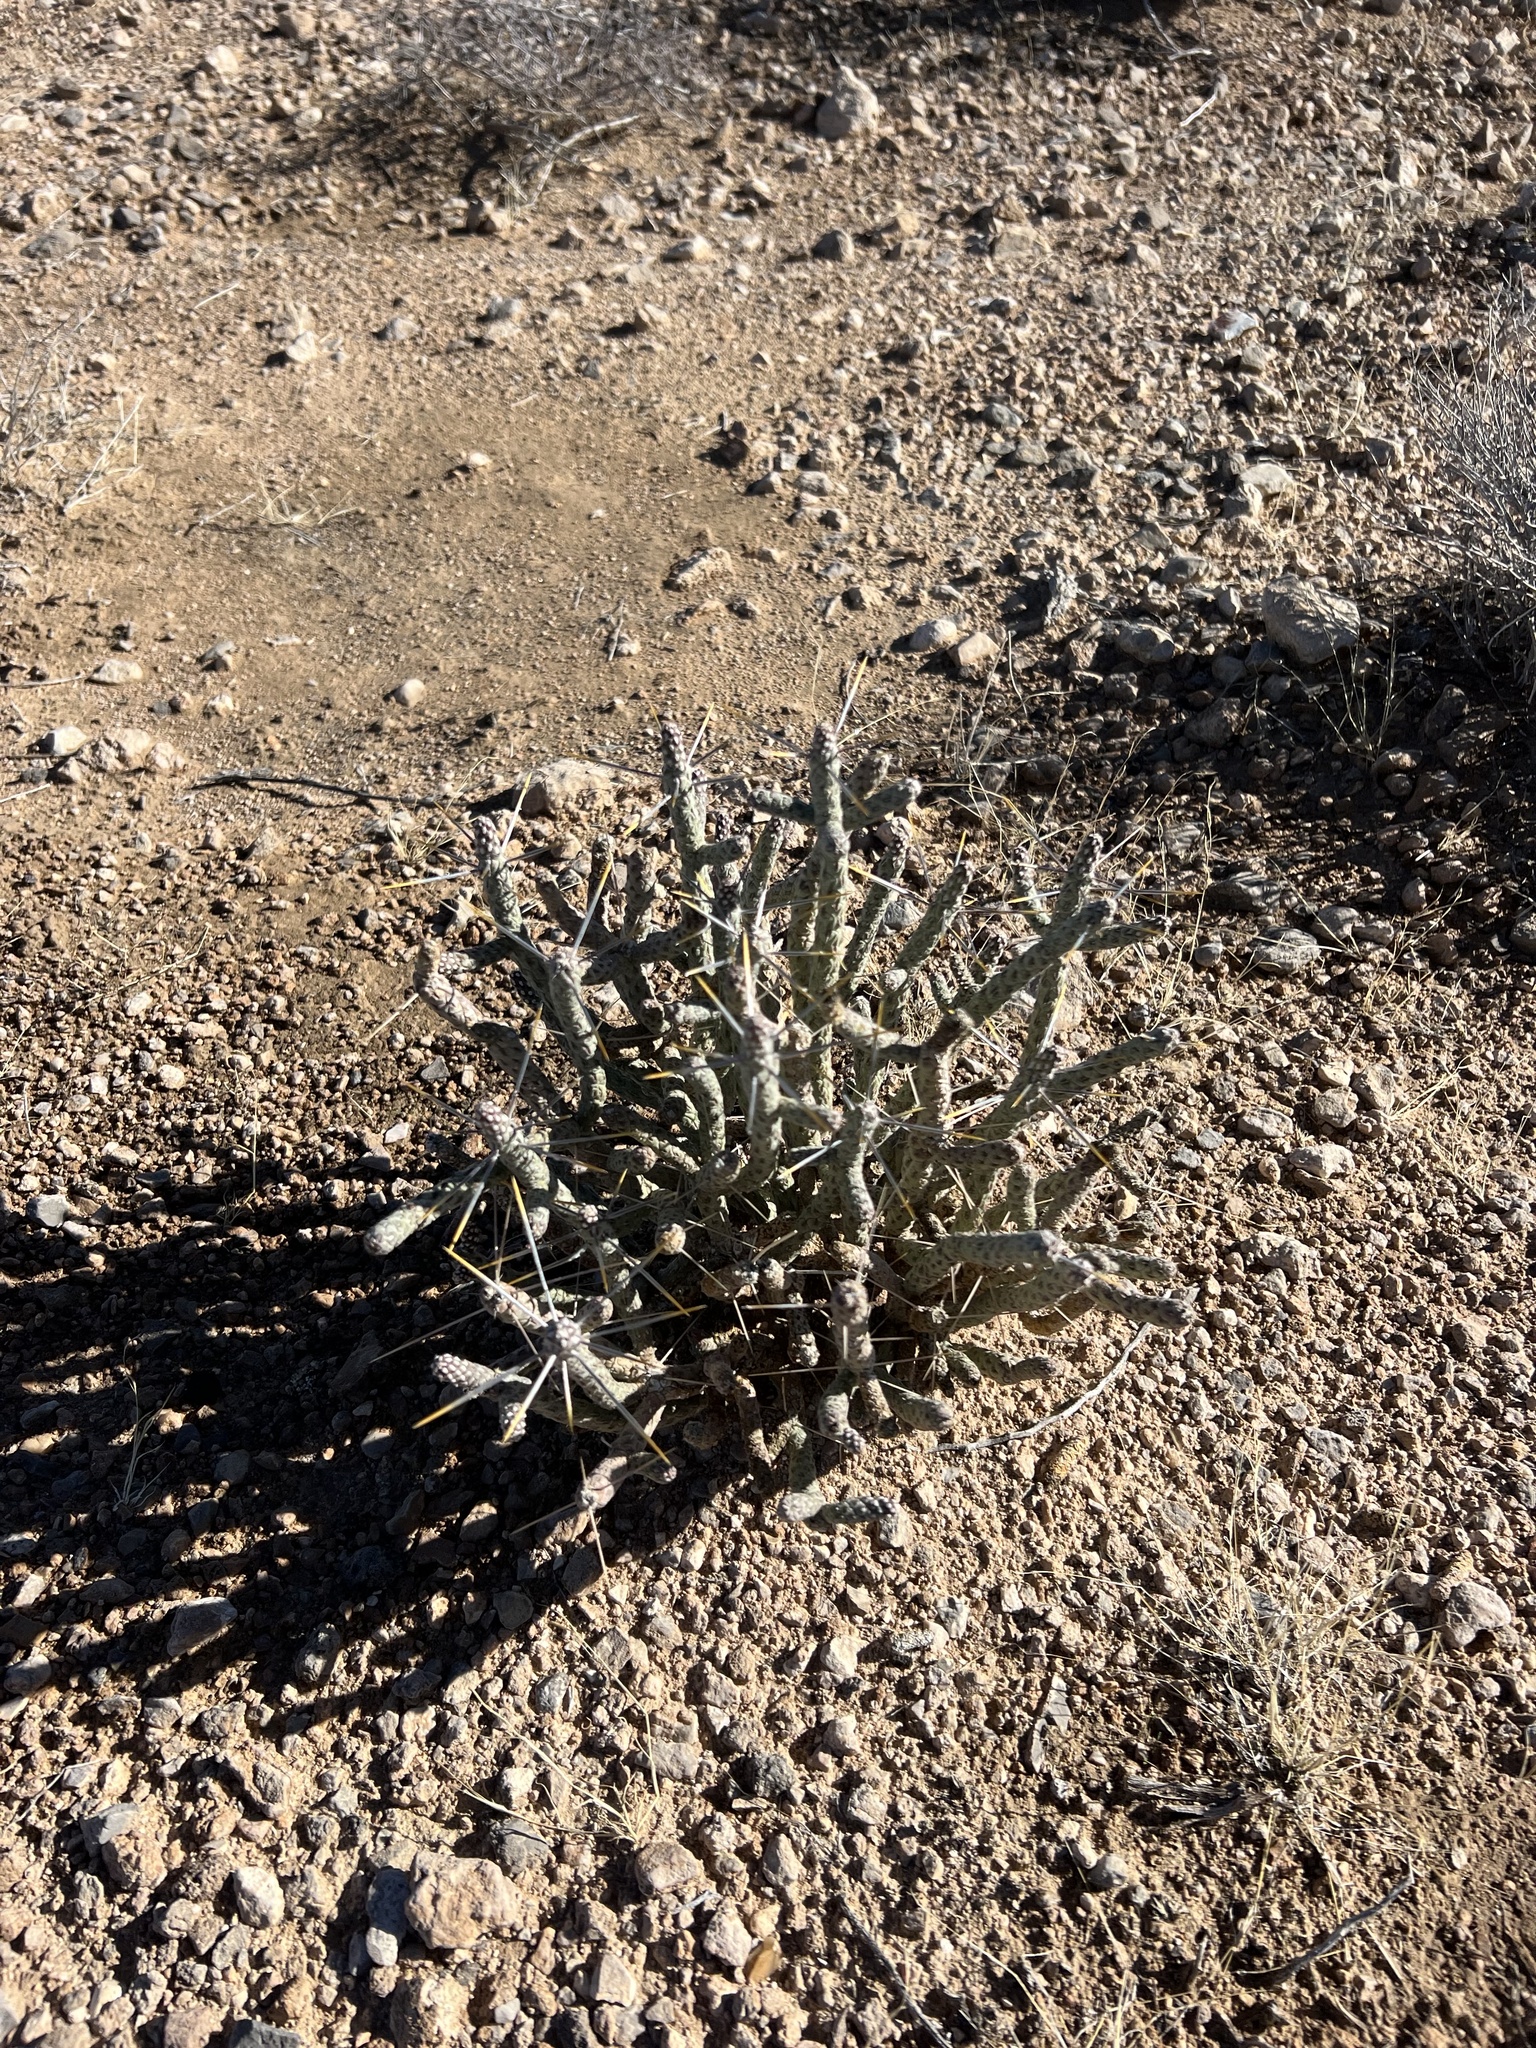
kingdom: Plantae
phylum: Tracheophyta
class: Magnoliopsida
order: Caryophyllales
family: Cactaceae
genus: Cylindropuntia
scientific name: Cylindropuntia ramosissima
